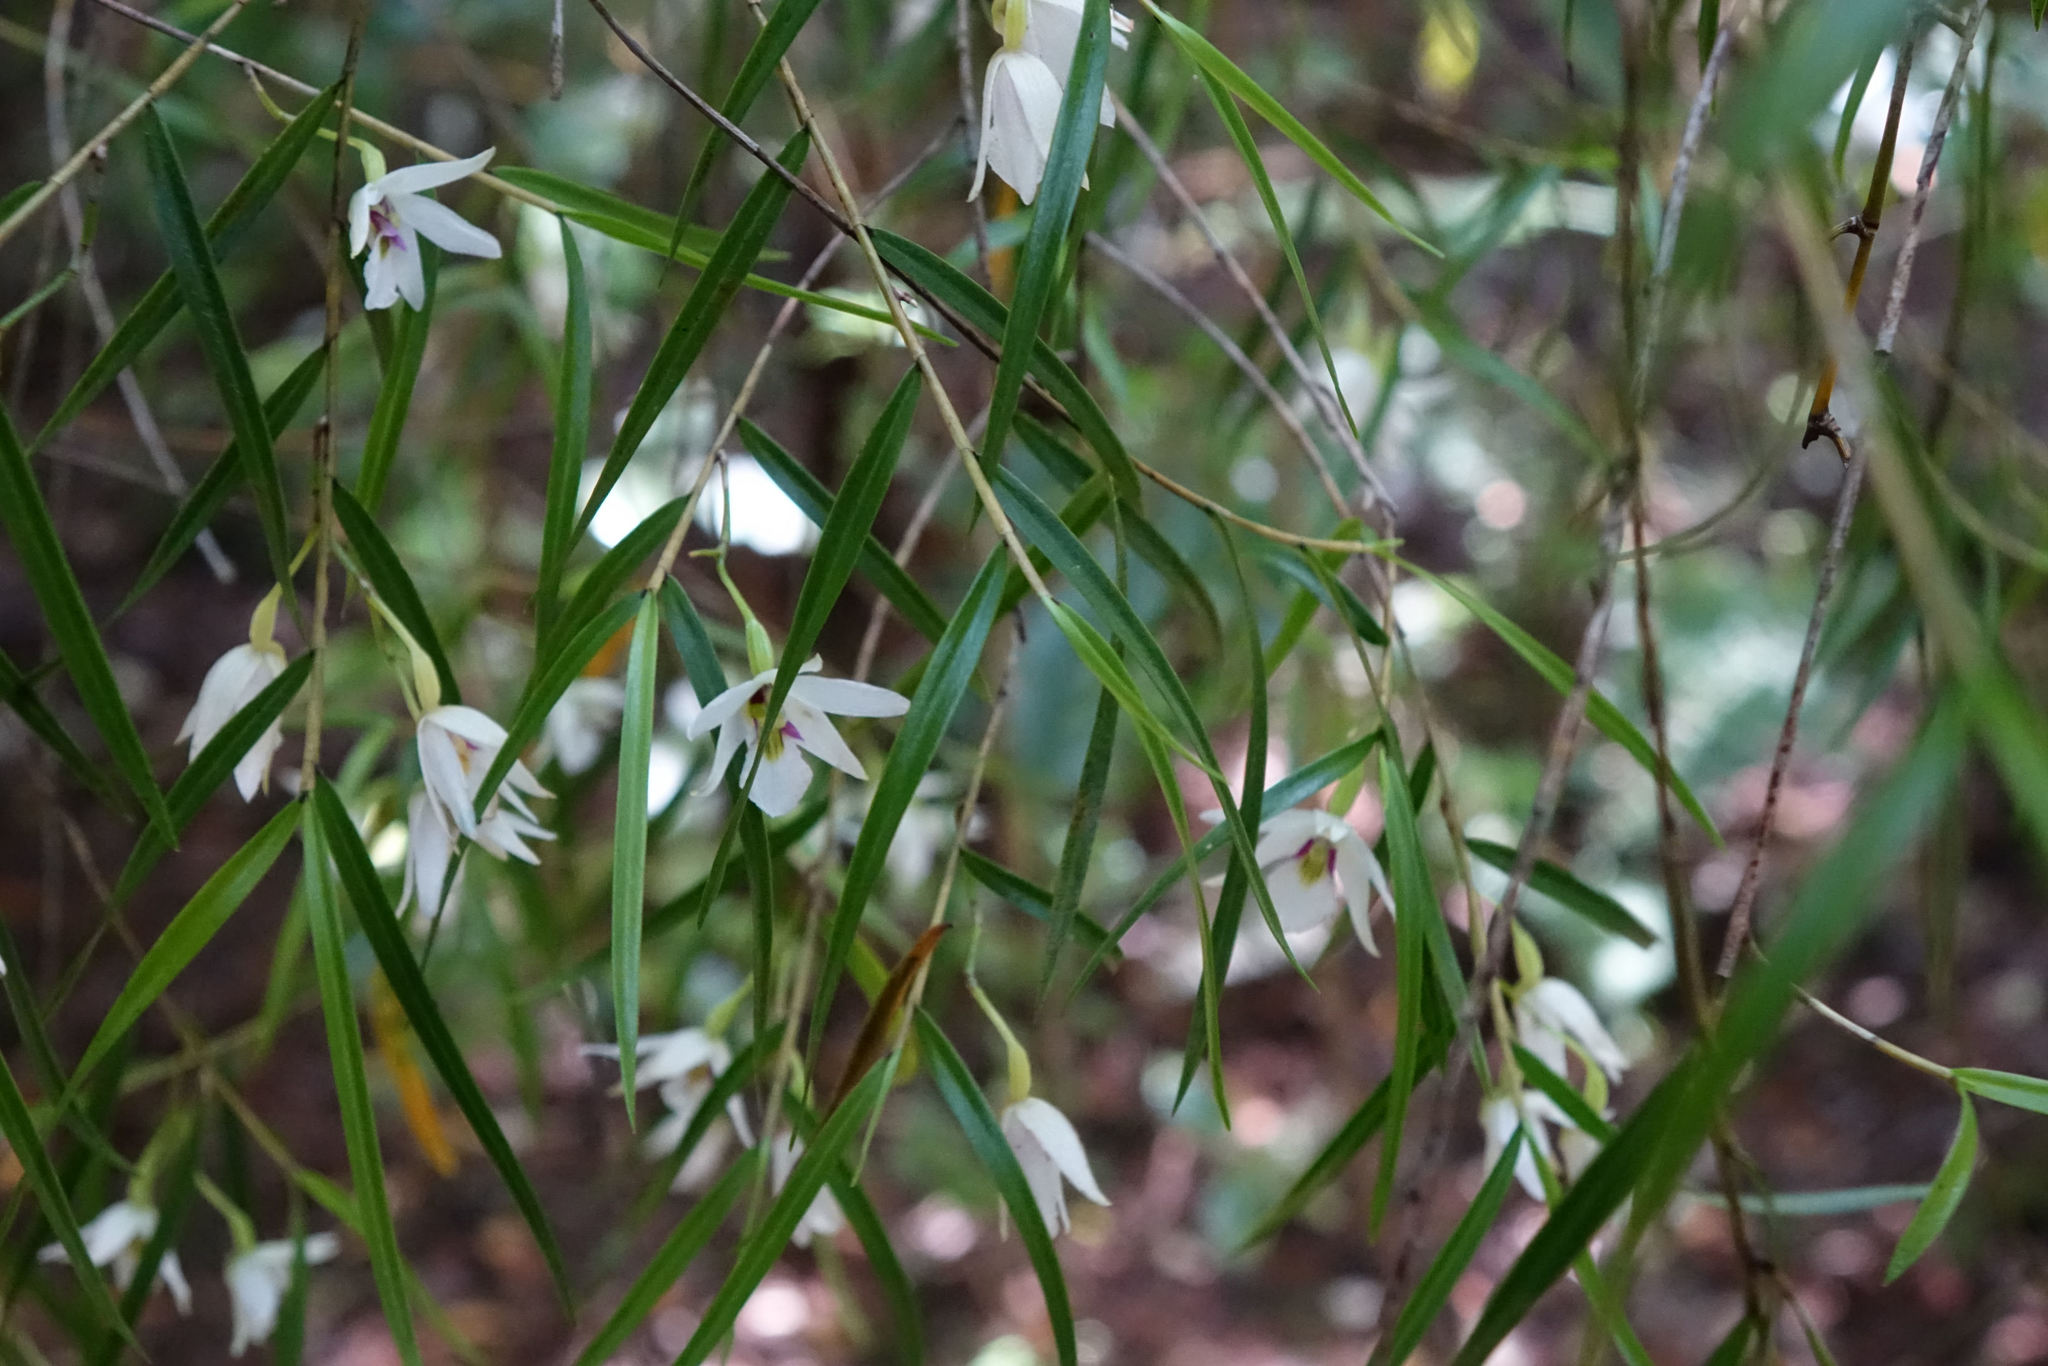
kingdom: Plantae
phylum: Tracheophyta
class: Liliopsida
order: Asparagales
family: Orchidaceae
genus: Dendrobium
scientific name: Dendrobium cunninghamii
